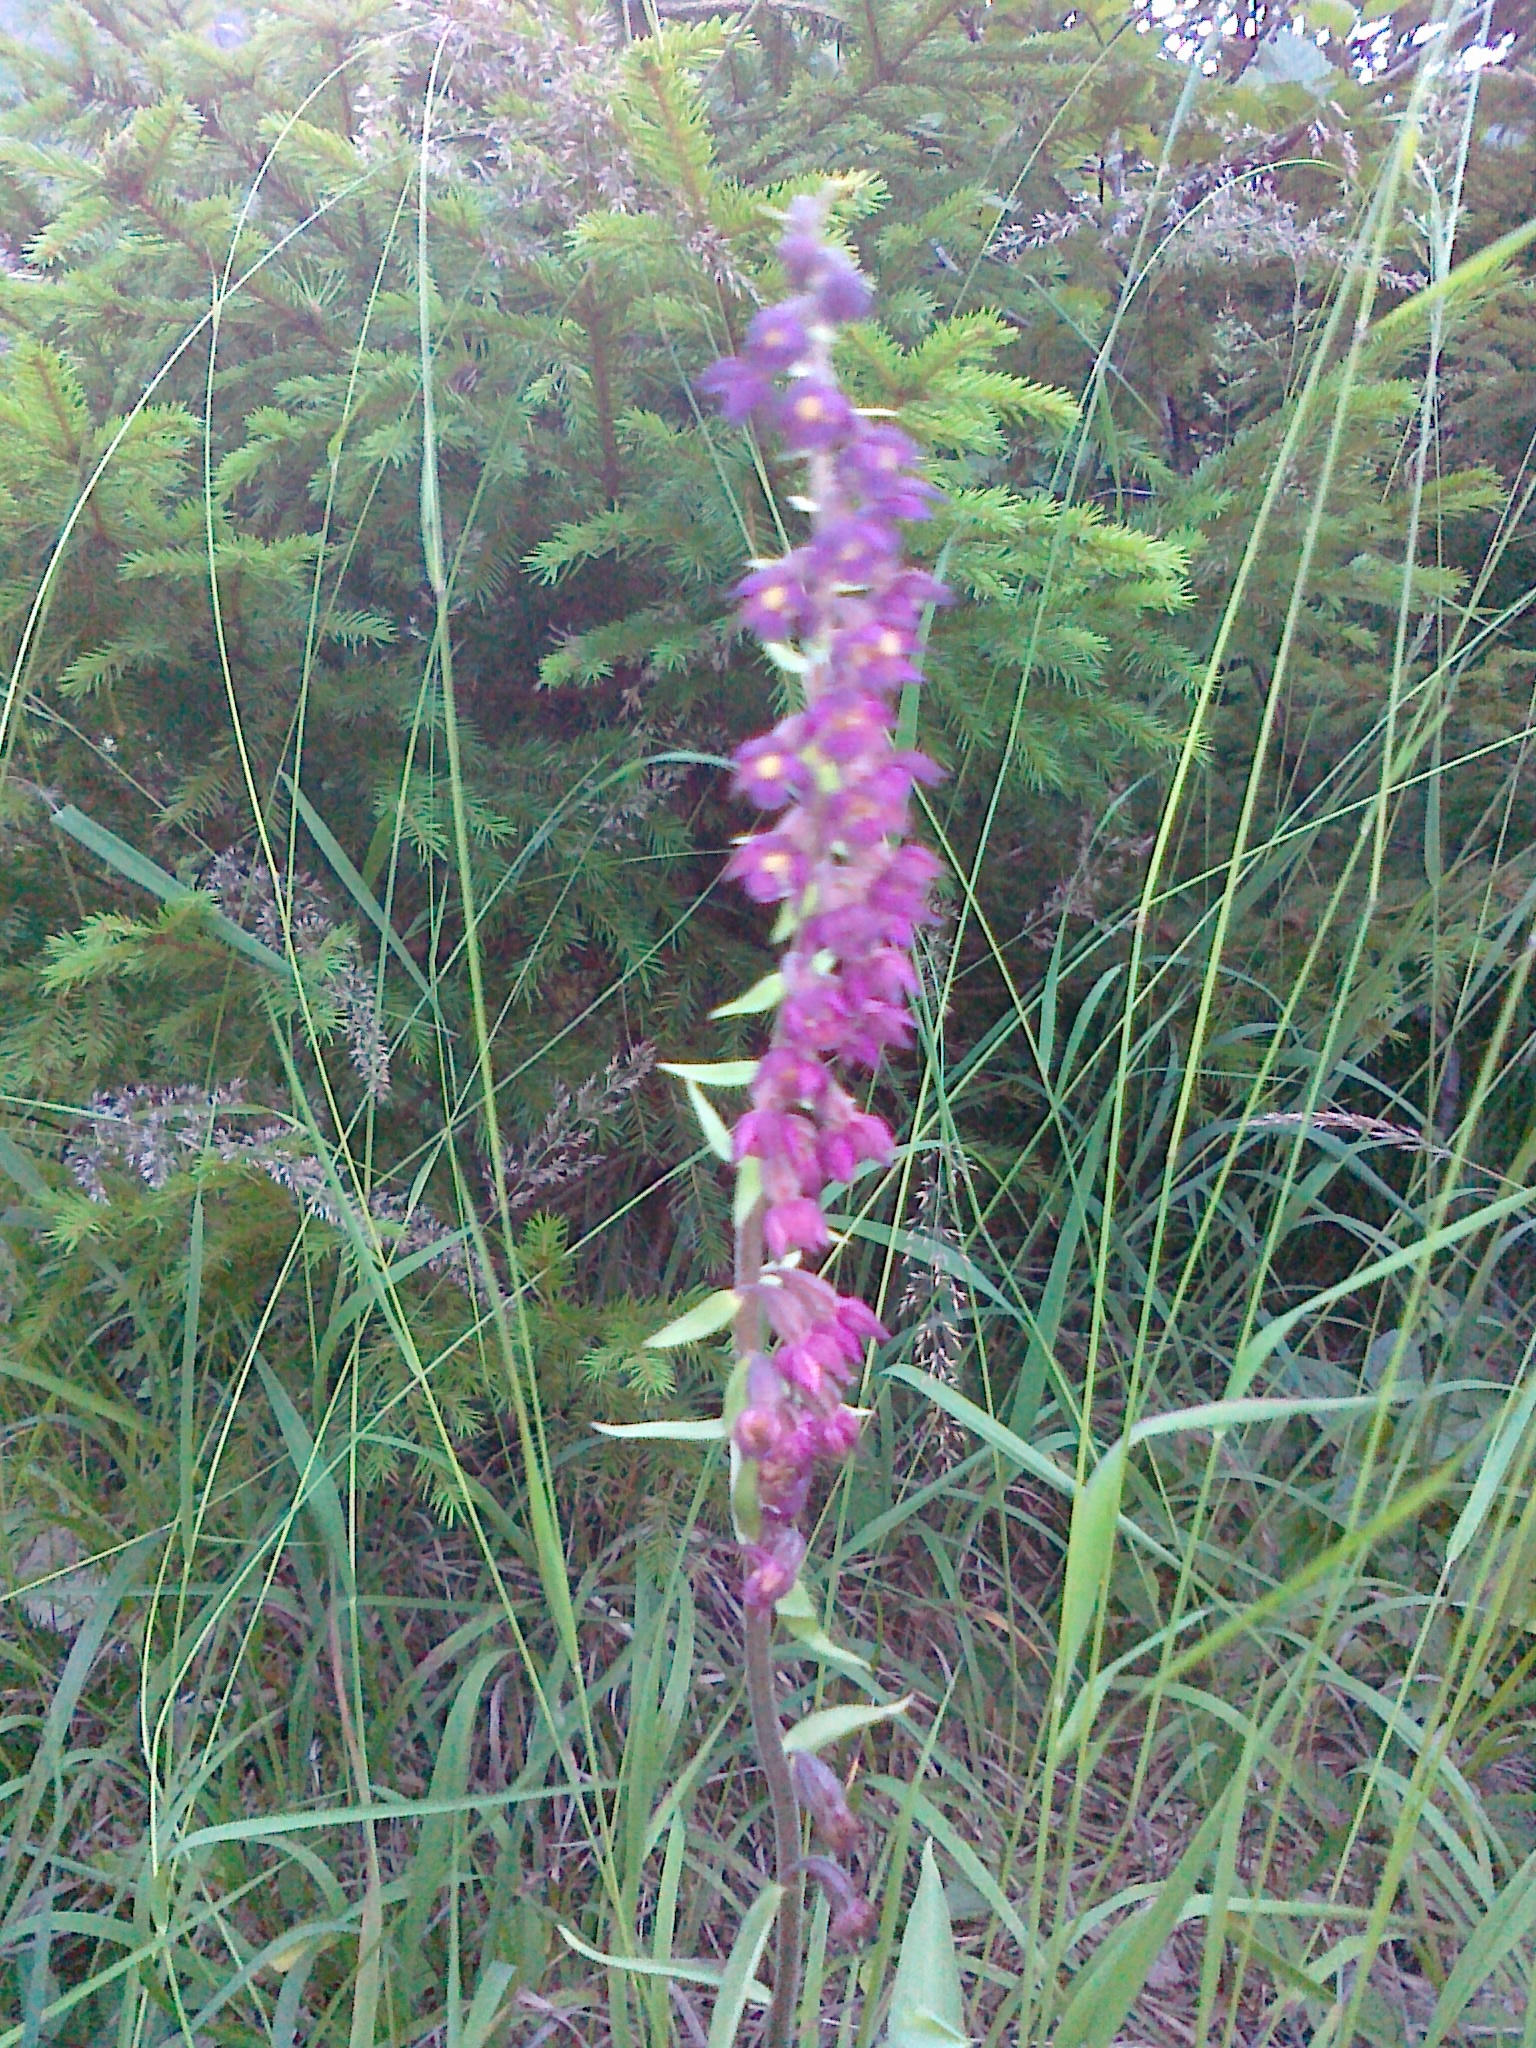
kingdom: Plantae
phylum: Tracheophyta
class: Liliopsida
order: Asparagales
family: Orchidaceae
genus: Epipactis
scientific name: Epipactis atrorubens
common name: Dark-red helleborine
